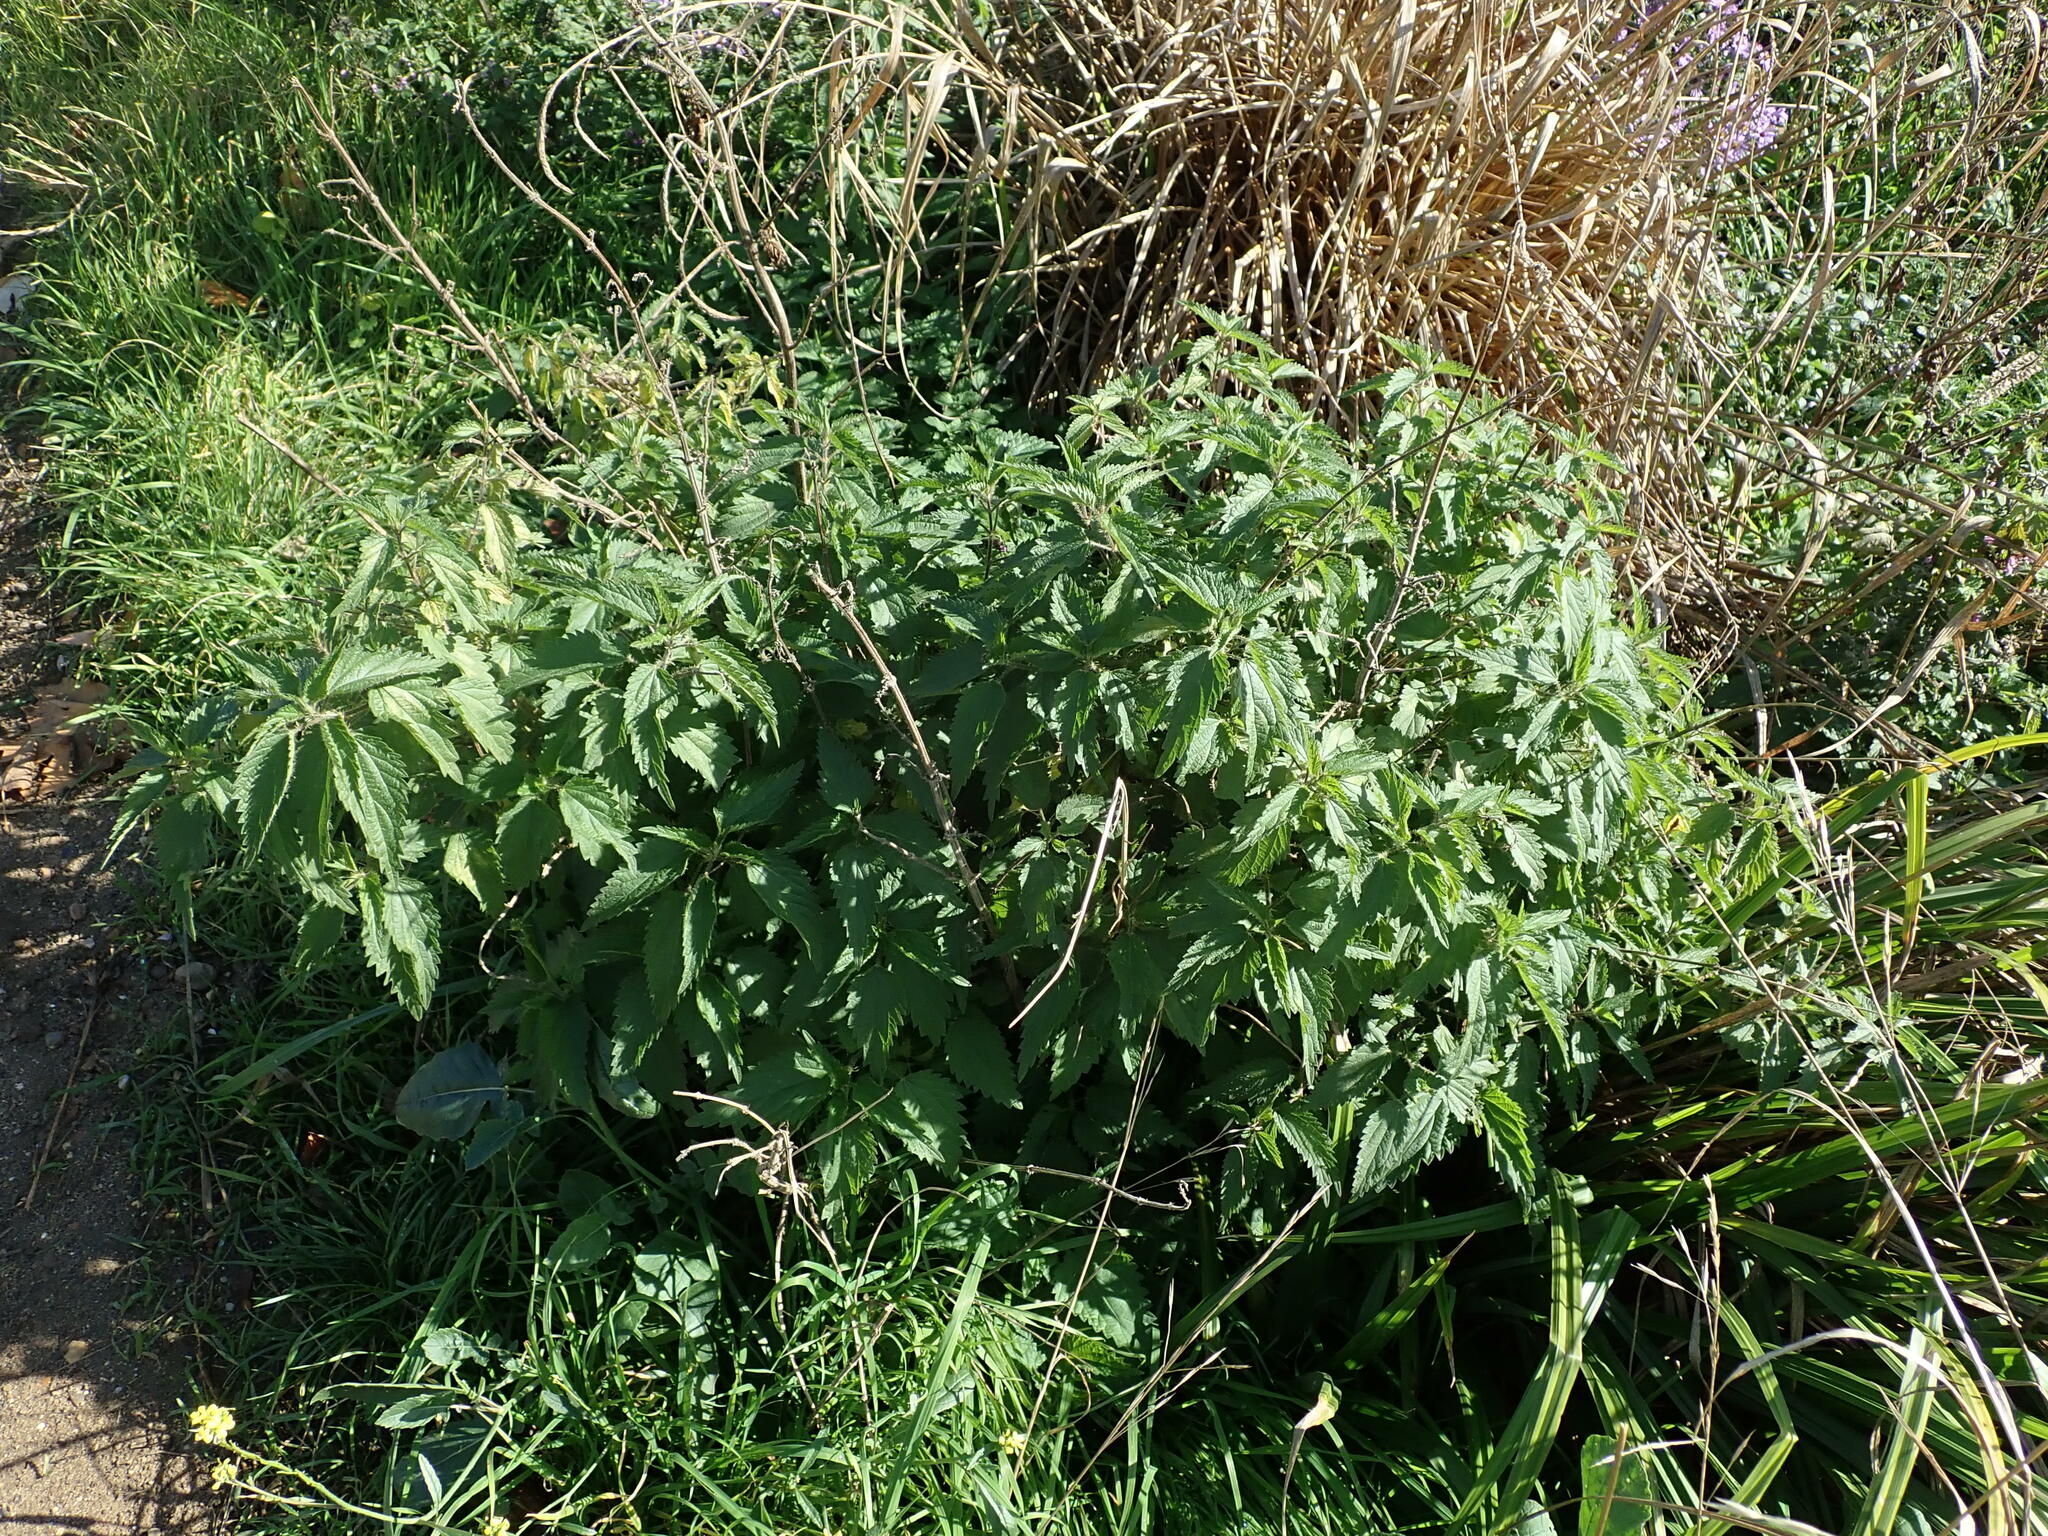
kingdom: Plantae
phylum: Tracheophyta
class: Magnoliopsida
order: Rosales
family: Urticaceae
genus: Urtica
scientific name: Urtica dioica
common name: Common nettle
